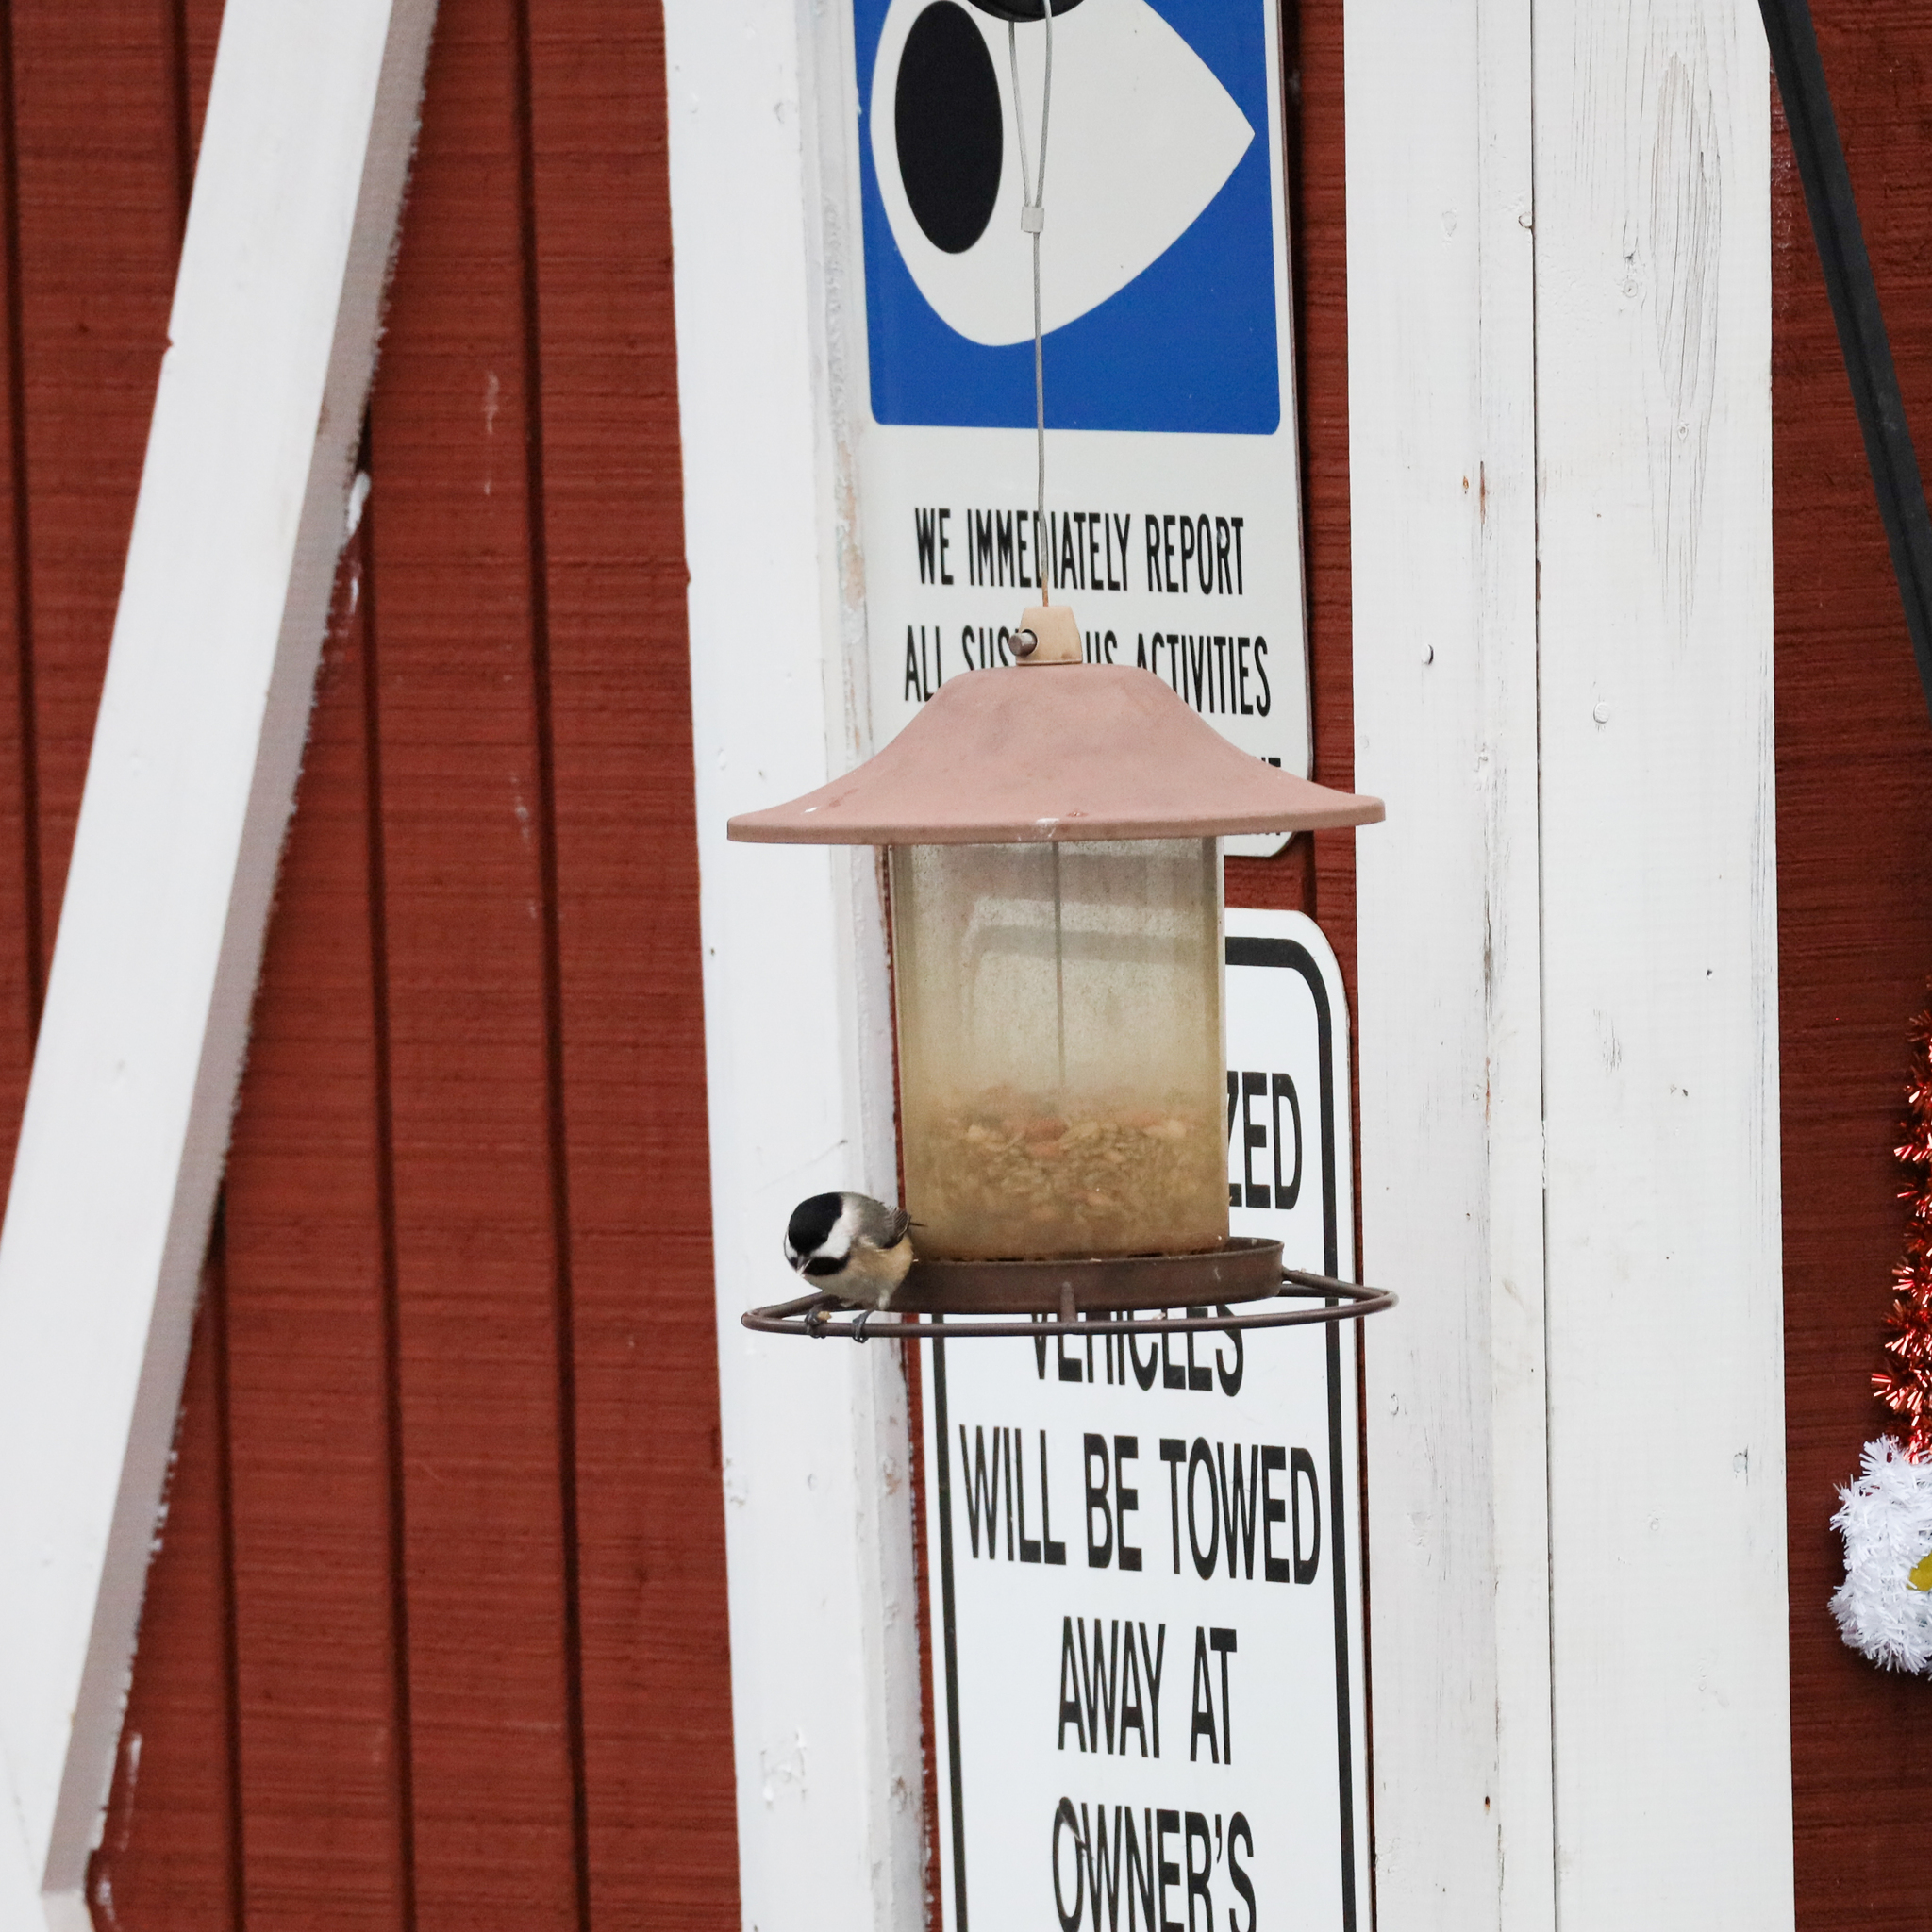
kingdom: Animalia
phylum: Chordata
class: Aves
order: Passeriformes
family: Paridae
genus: Poecile
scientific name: Poecile carolinensis
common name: Carolina chickadee
